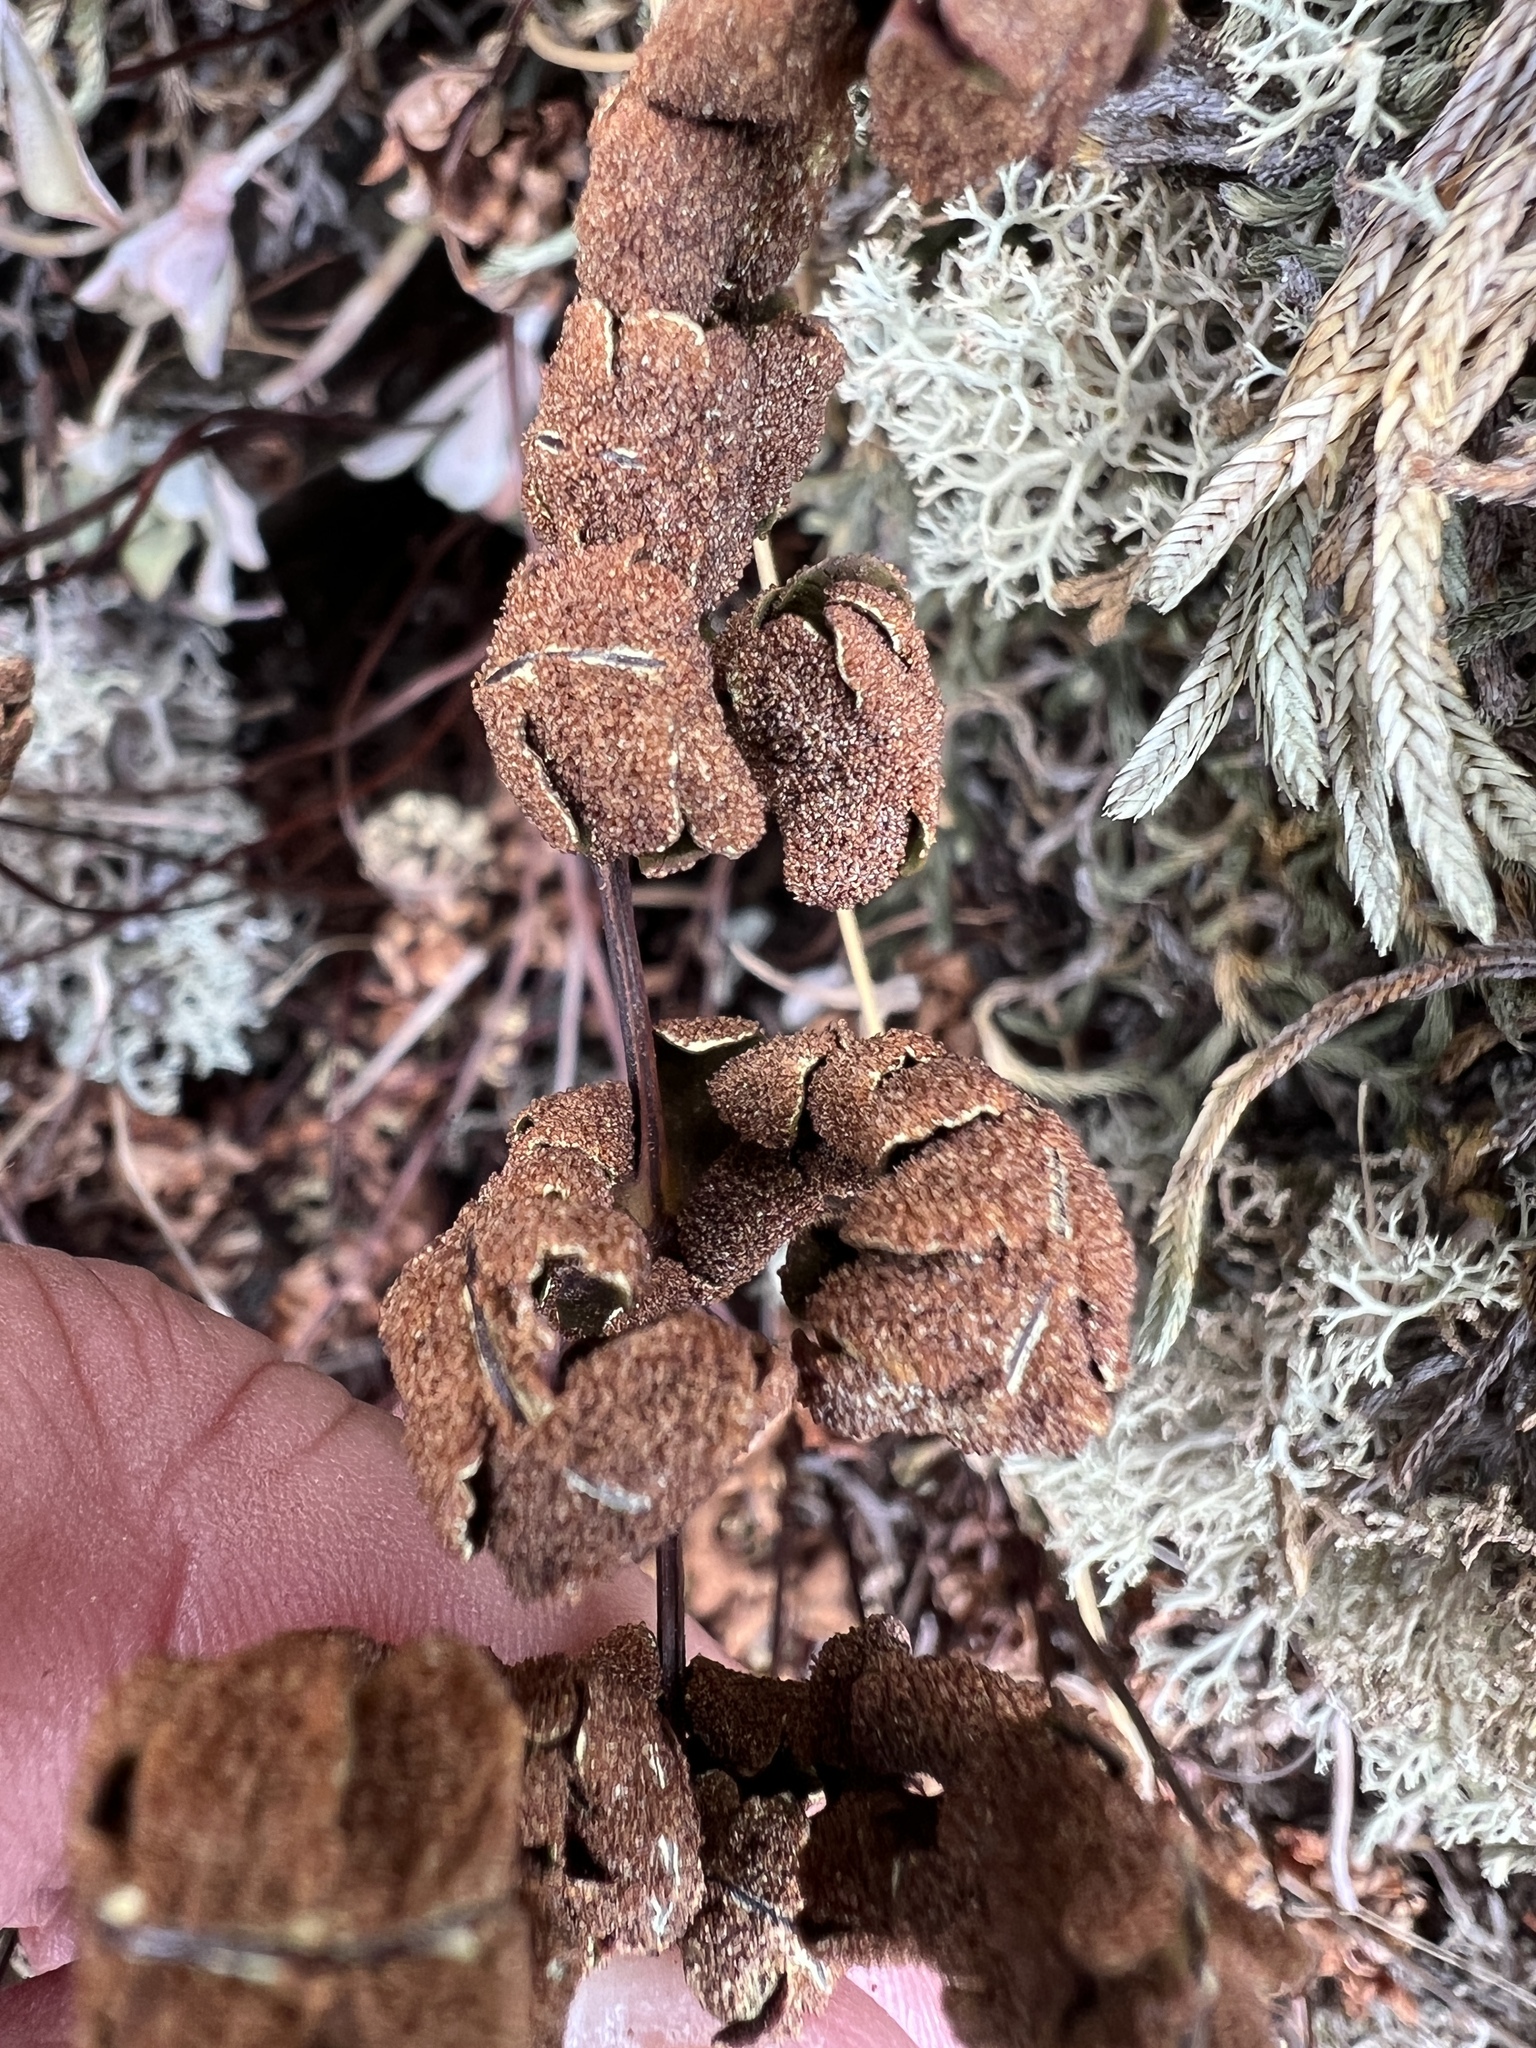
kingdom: Plantae
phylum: Tracheophyta
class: Polypodiopsida
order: Polypodiales
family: Pteridaceae
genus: Pentagramma
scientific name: Pentagramma triangularis
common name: Gold fern
